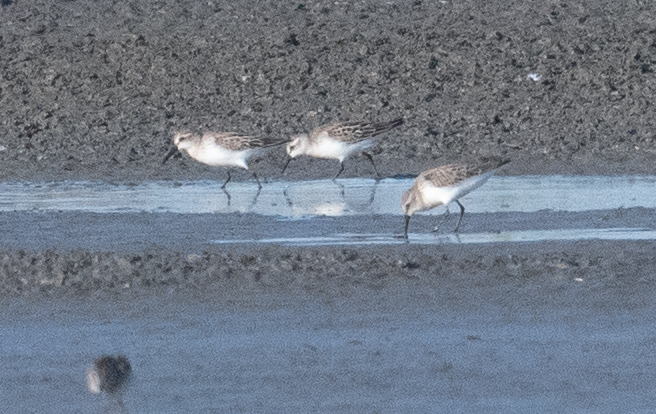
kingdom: Animalia
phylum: Chordata
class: Aves
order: Charadriiformes
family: Scolopacidae
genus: Calidris
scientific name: Calidris mauri
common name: Western sandpiper
